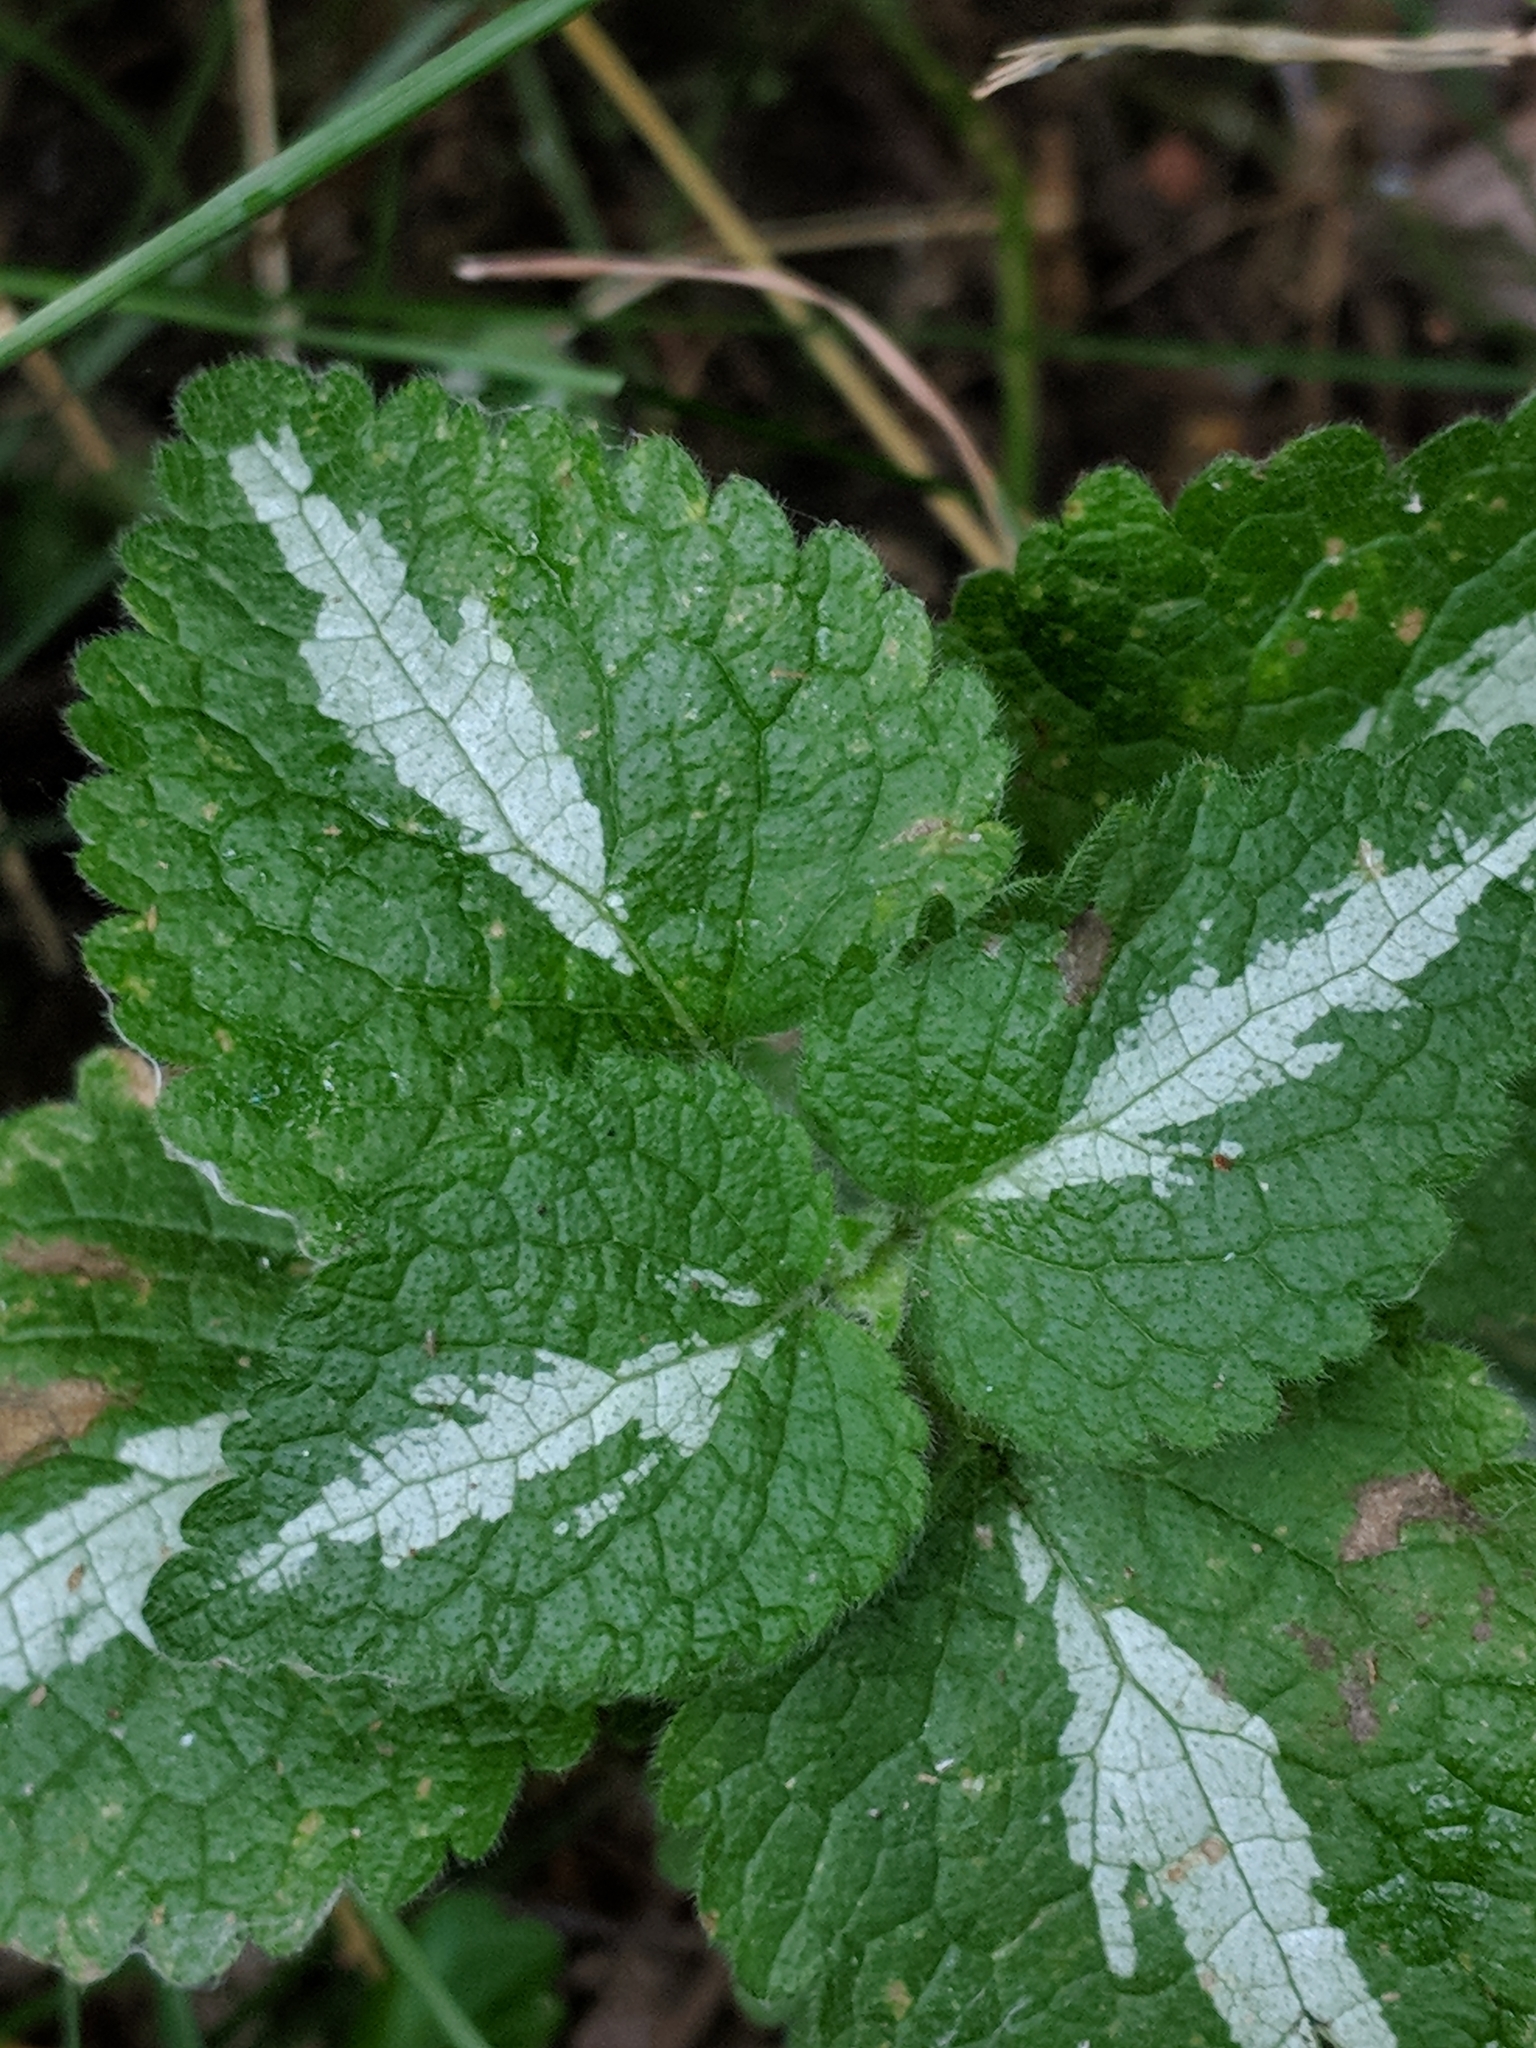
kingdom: Plantae
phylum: Tracheophyta
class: Magnoliopsida
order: Lamiales
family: Lamiaceae
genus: Lamium
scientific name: Lamium maculatum
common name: Spotted dead-nettle
